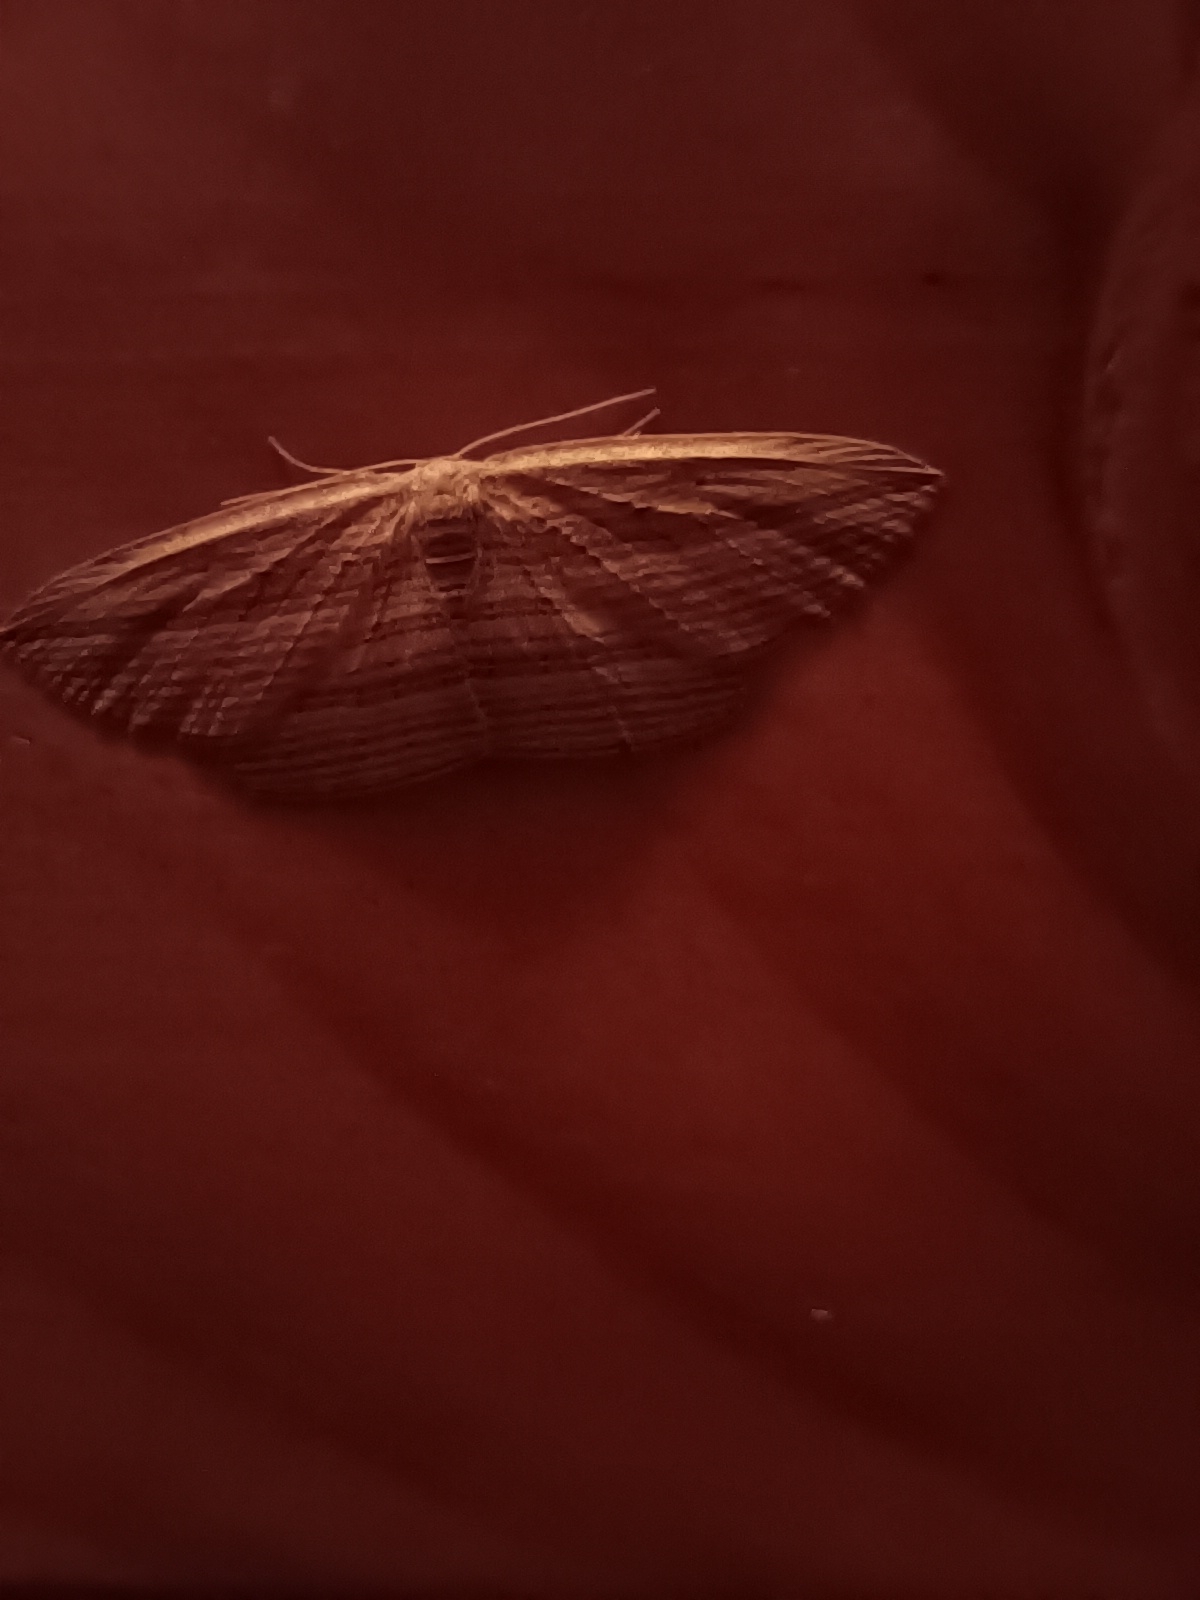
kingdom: Animalia
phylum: Arthropoda
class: Insecta
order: Lepidoptera
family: Geometridae
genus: Epiphryne
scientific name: Epiphryne verriculata
